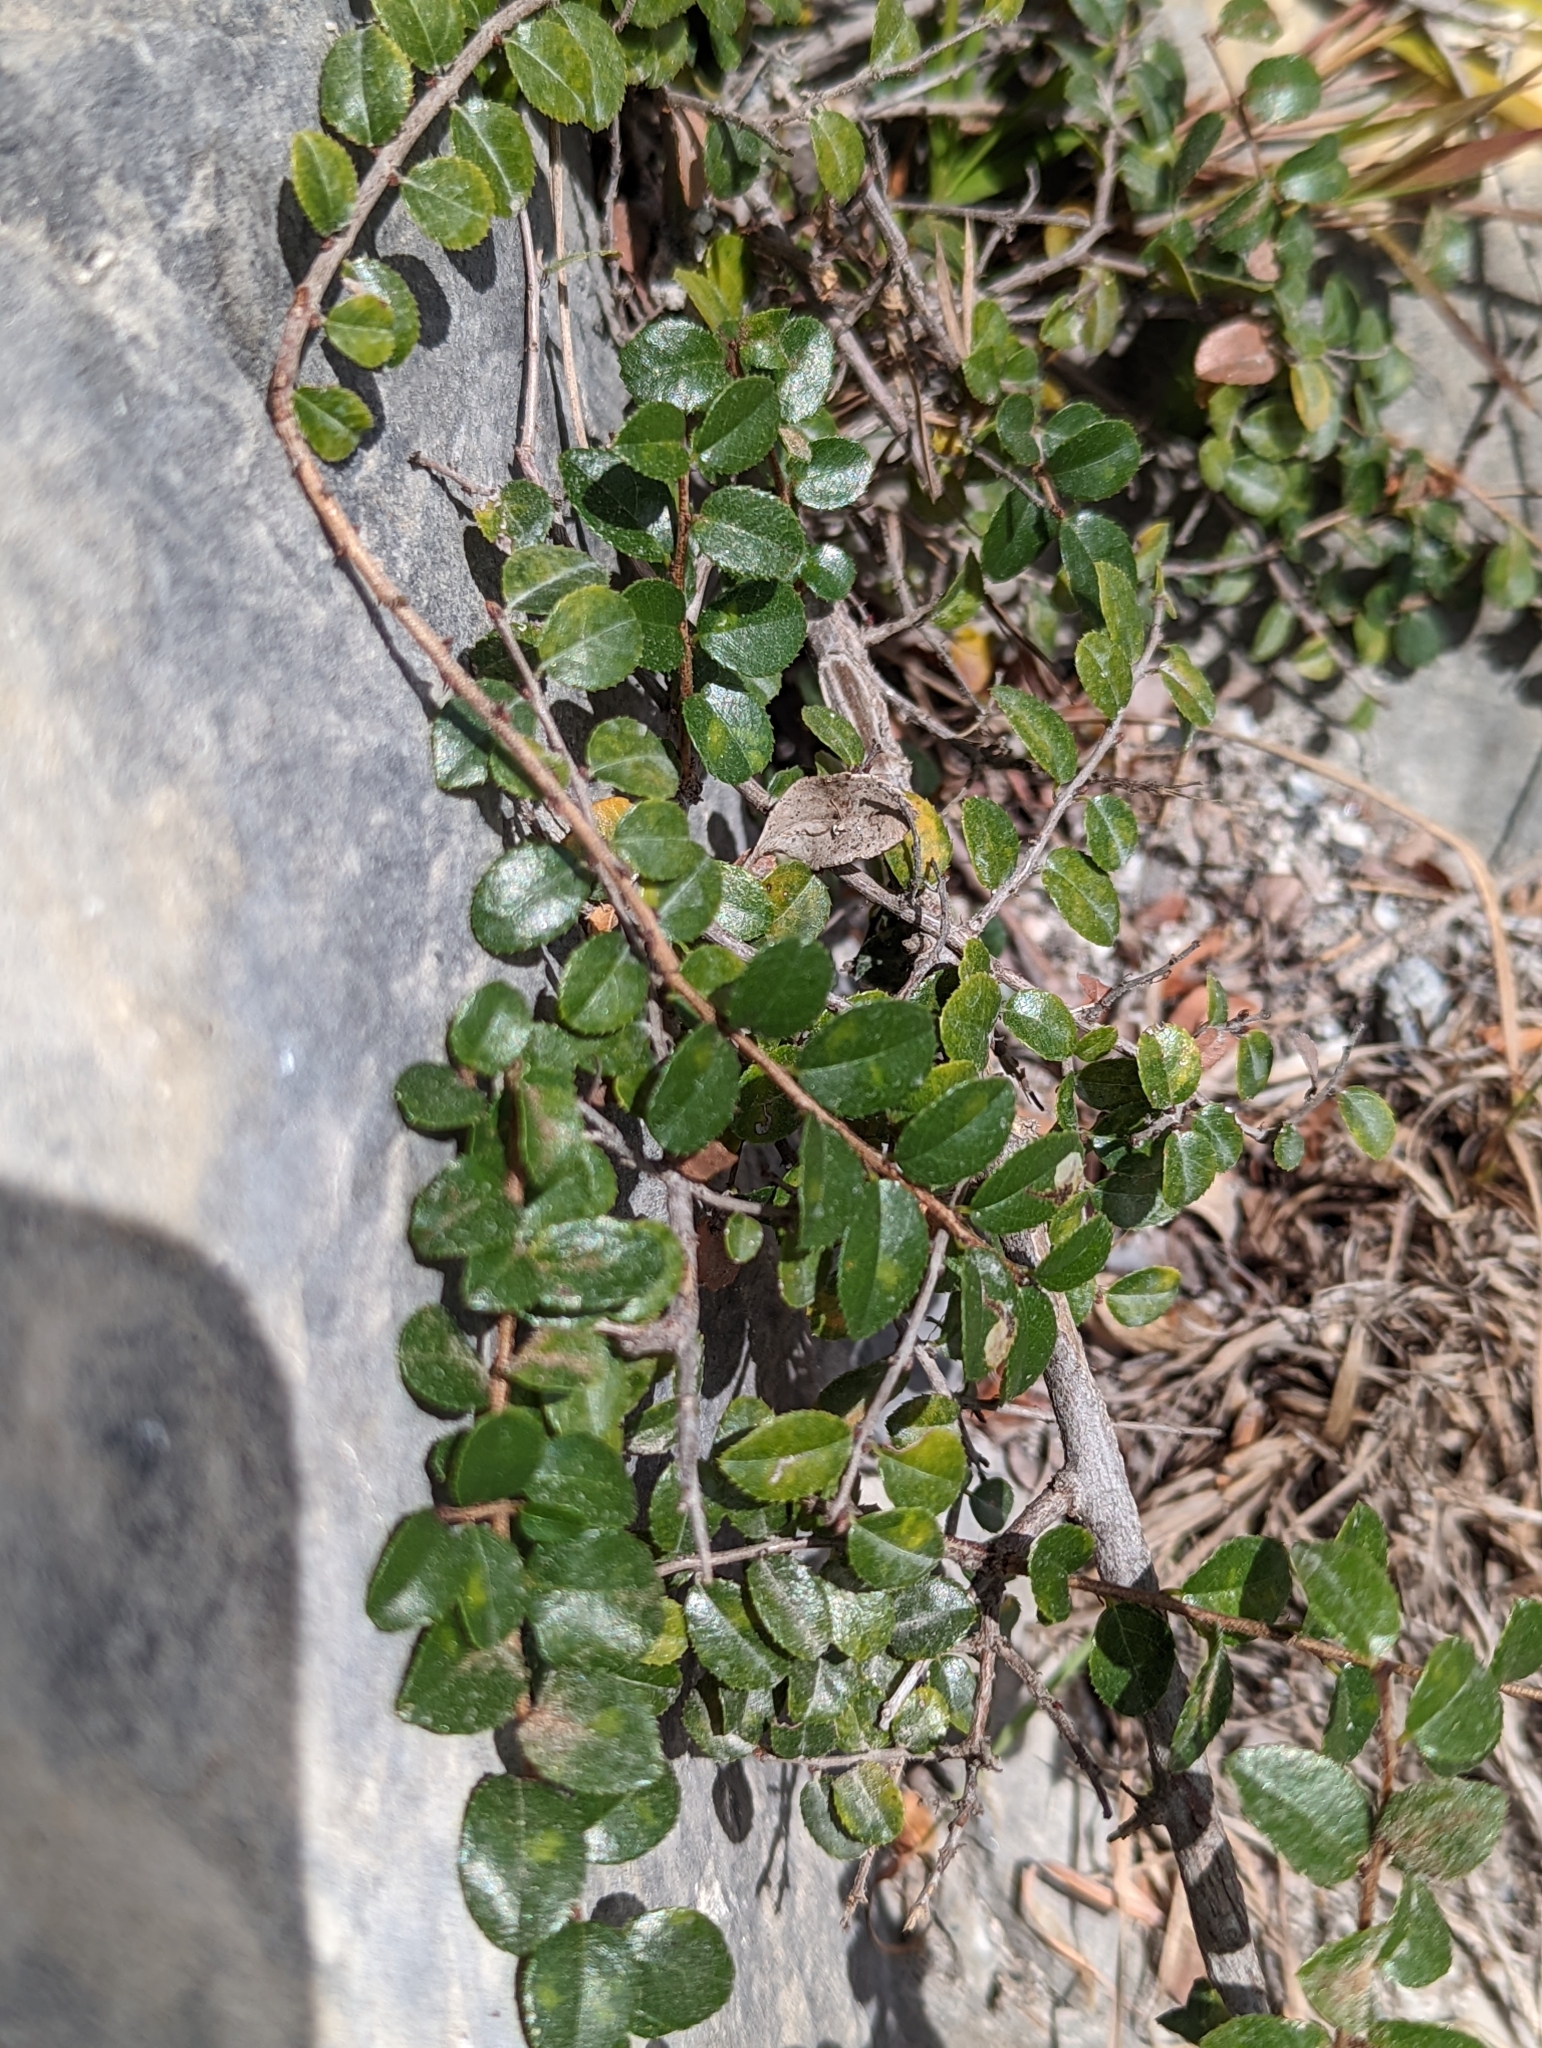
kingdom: Plantae
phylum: Tracheophyta
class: Magnoliopsida
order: Rosales
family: Rhamnaceae
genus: Sageretia
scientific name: Sageretia thea
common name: Pauper's-tea
